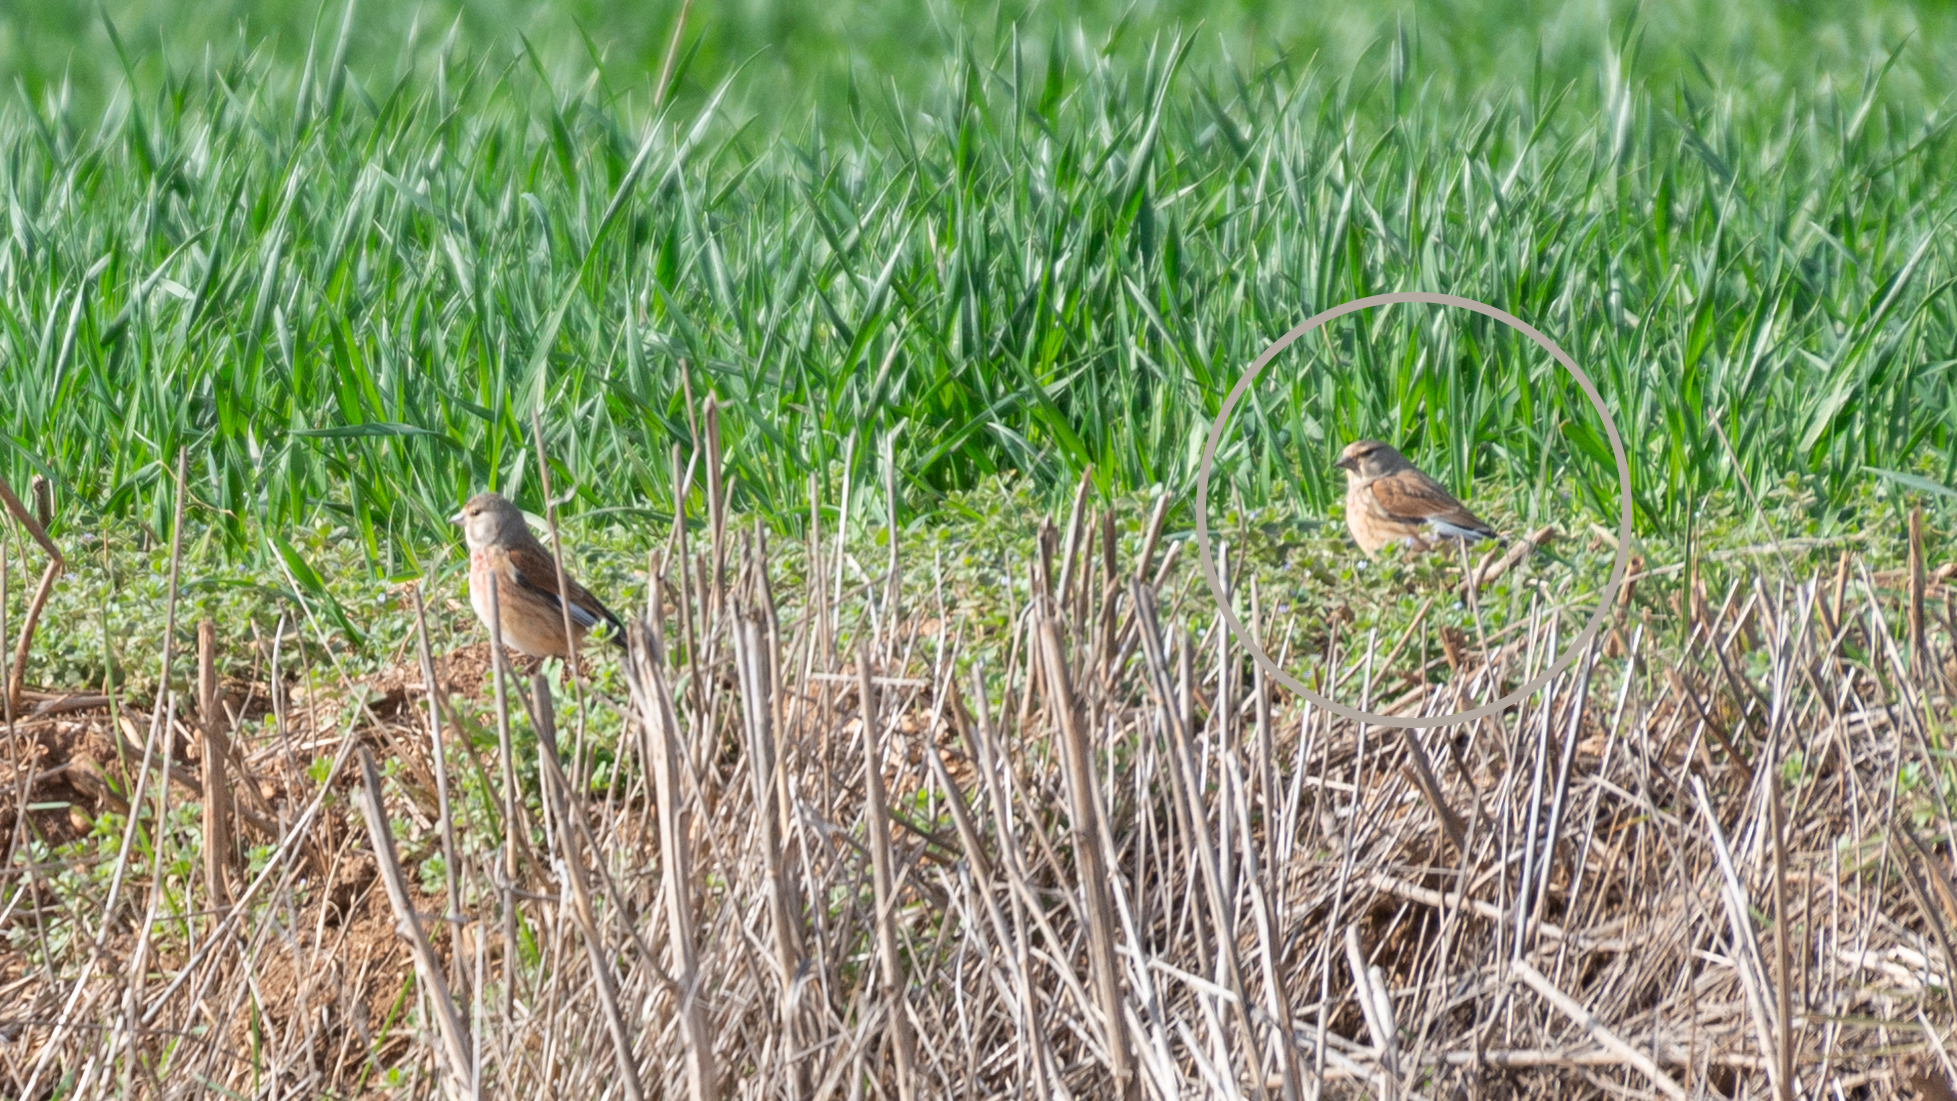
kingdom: Animalia
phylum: Chordata
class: Aves
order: Passeriformes
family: Fringillidae
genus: Linaria
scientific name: Linaria cannabina
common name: Common linnet
